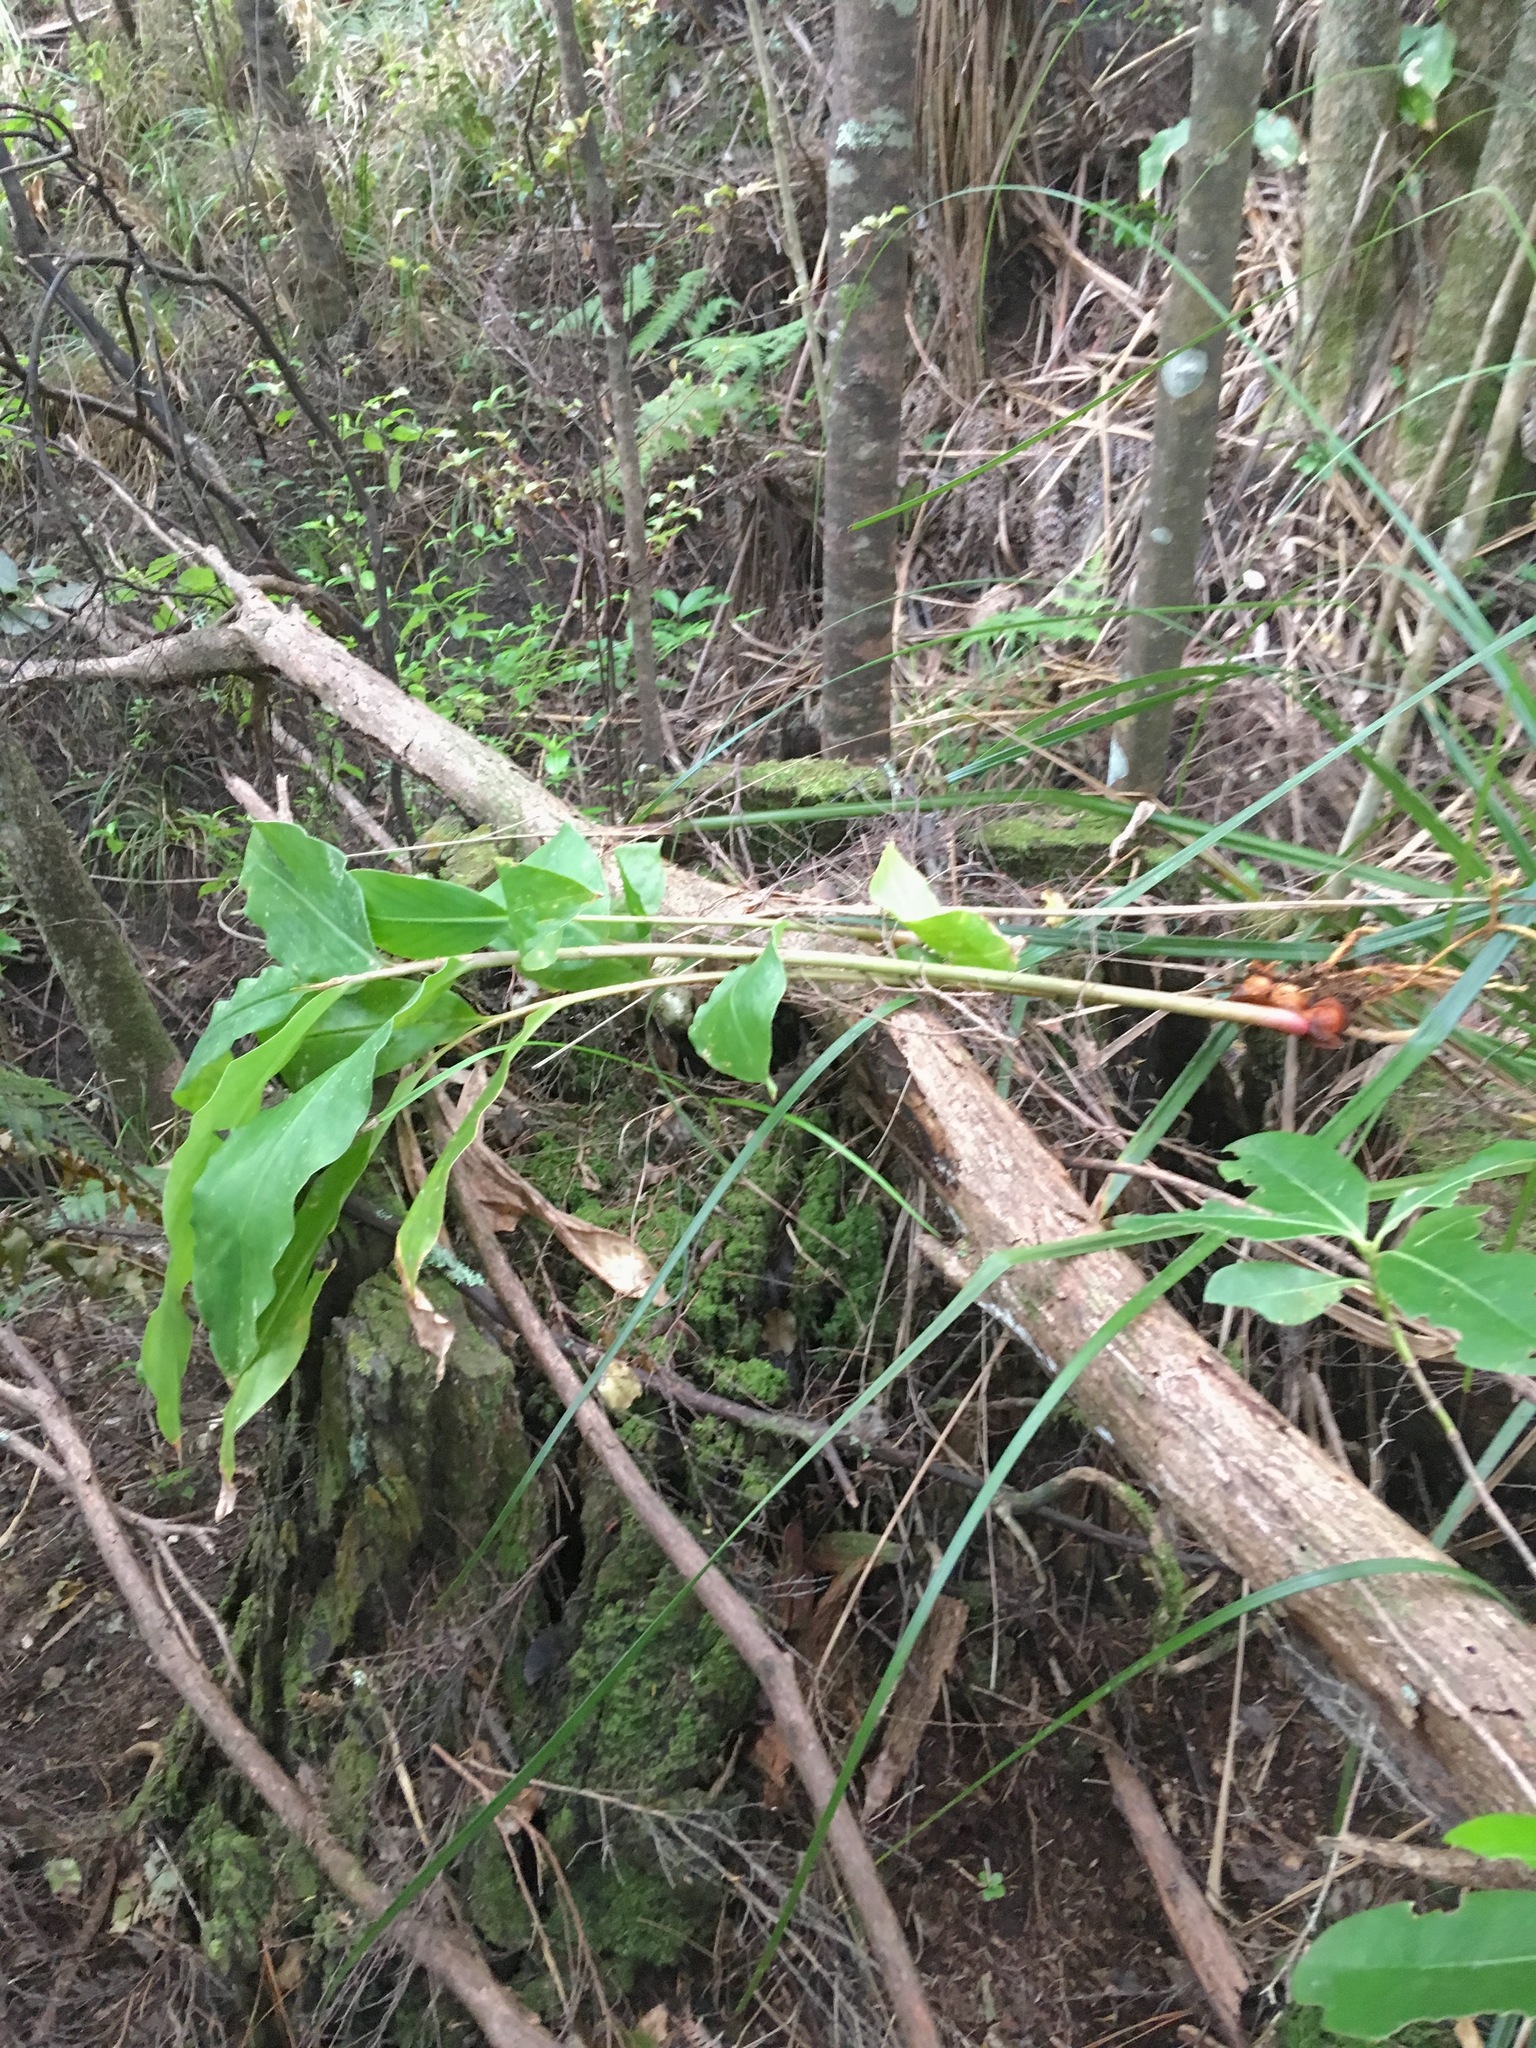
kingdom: Plantae
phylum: Tracheophyta
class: Liliopsida
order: Zingiberales
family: Zingiberaceae
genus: Hedychium
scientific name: Hedychium gardnerianum
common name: Himalayan ginger
